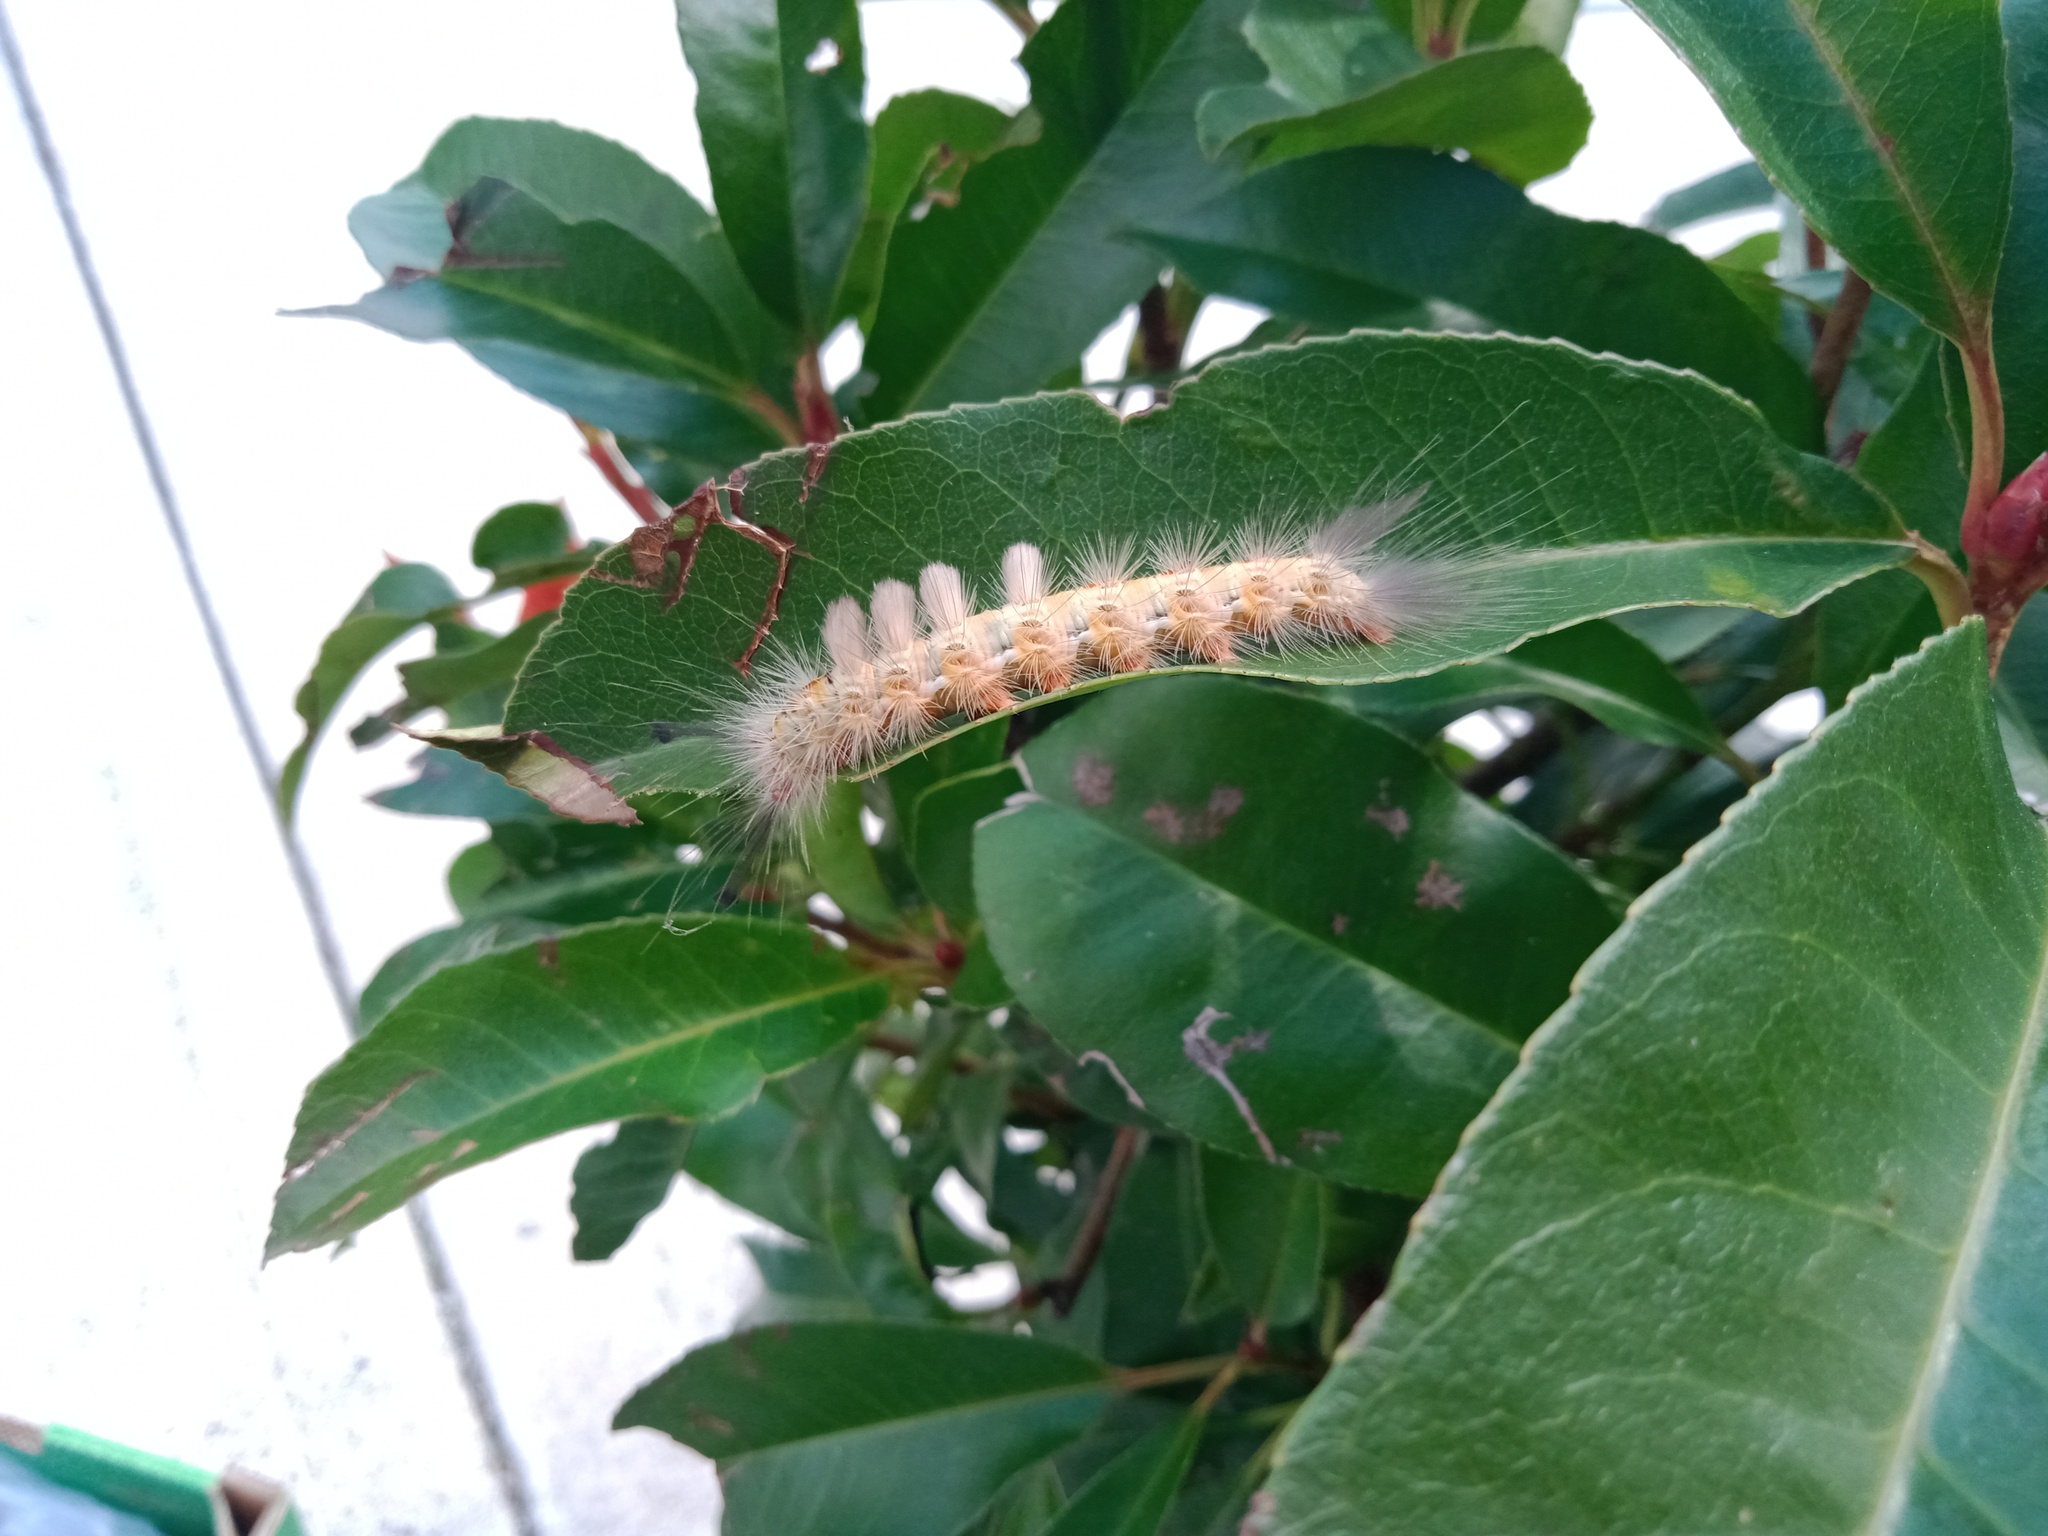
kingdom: Animalia
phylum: Arthropoda
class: Insecta
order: Lepidoptera
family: Erebidae
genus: Orgyia
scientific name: Orgyia
